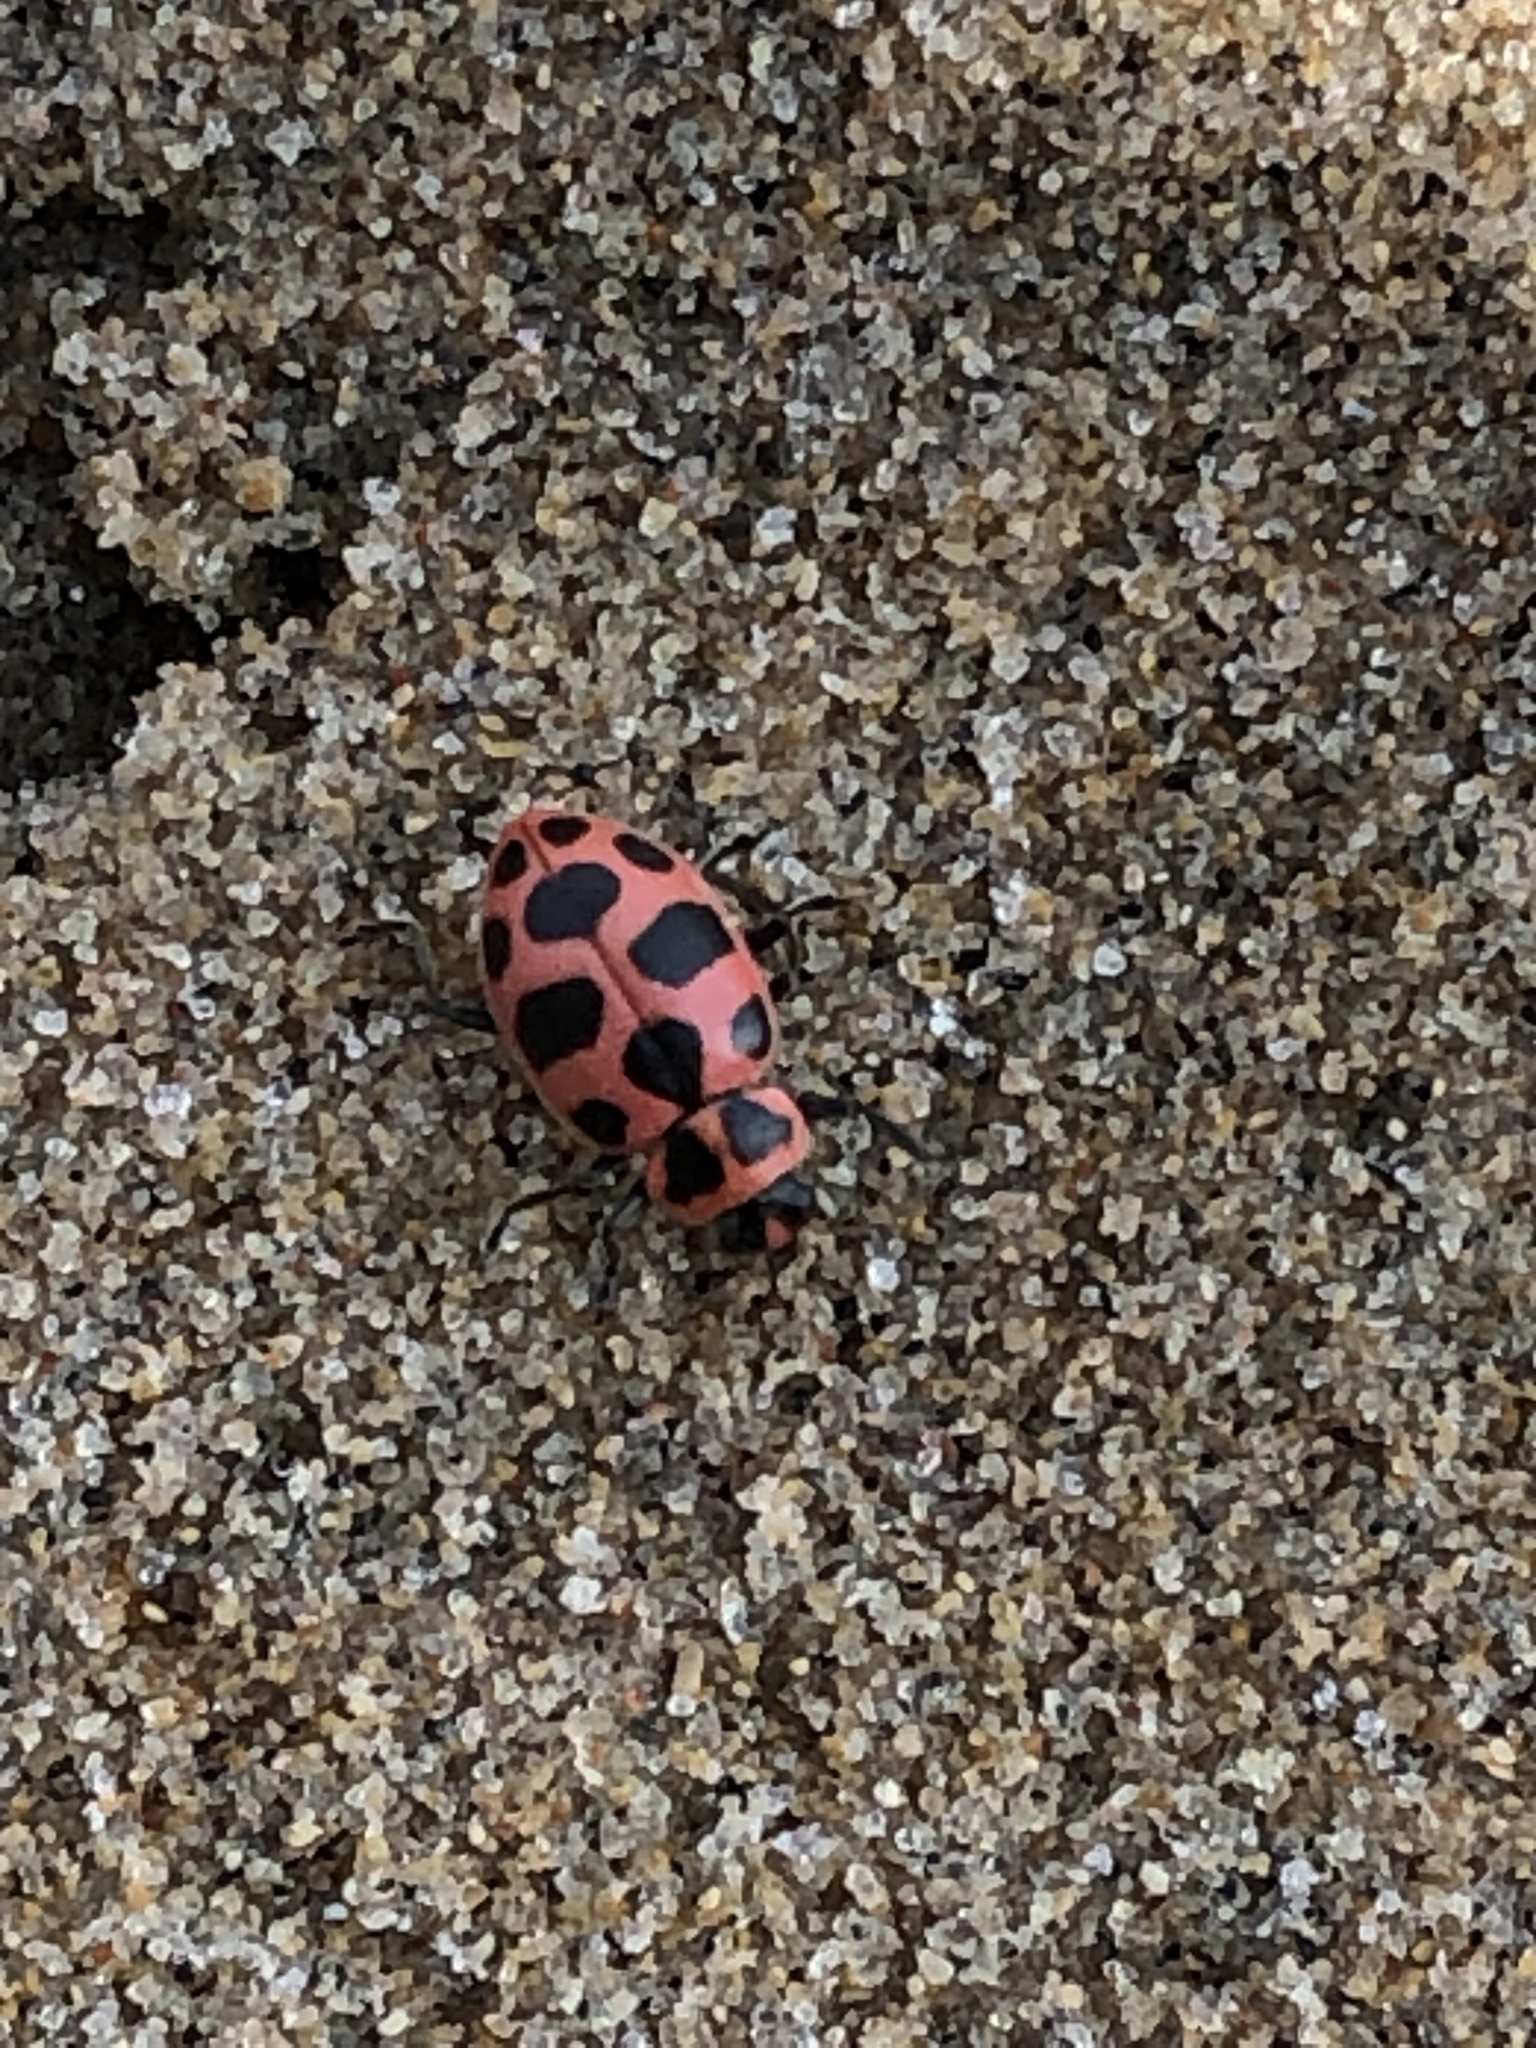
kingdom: Animalia
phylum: Arthropoda
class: Insecta
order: Coleoptera
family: Coccinellidae
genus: Coleomegilla
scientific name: Coleomegilla maculata
